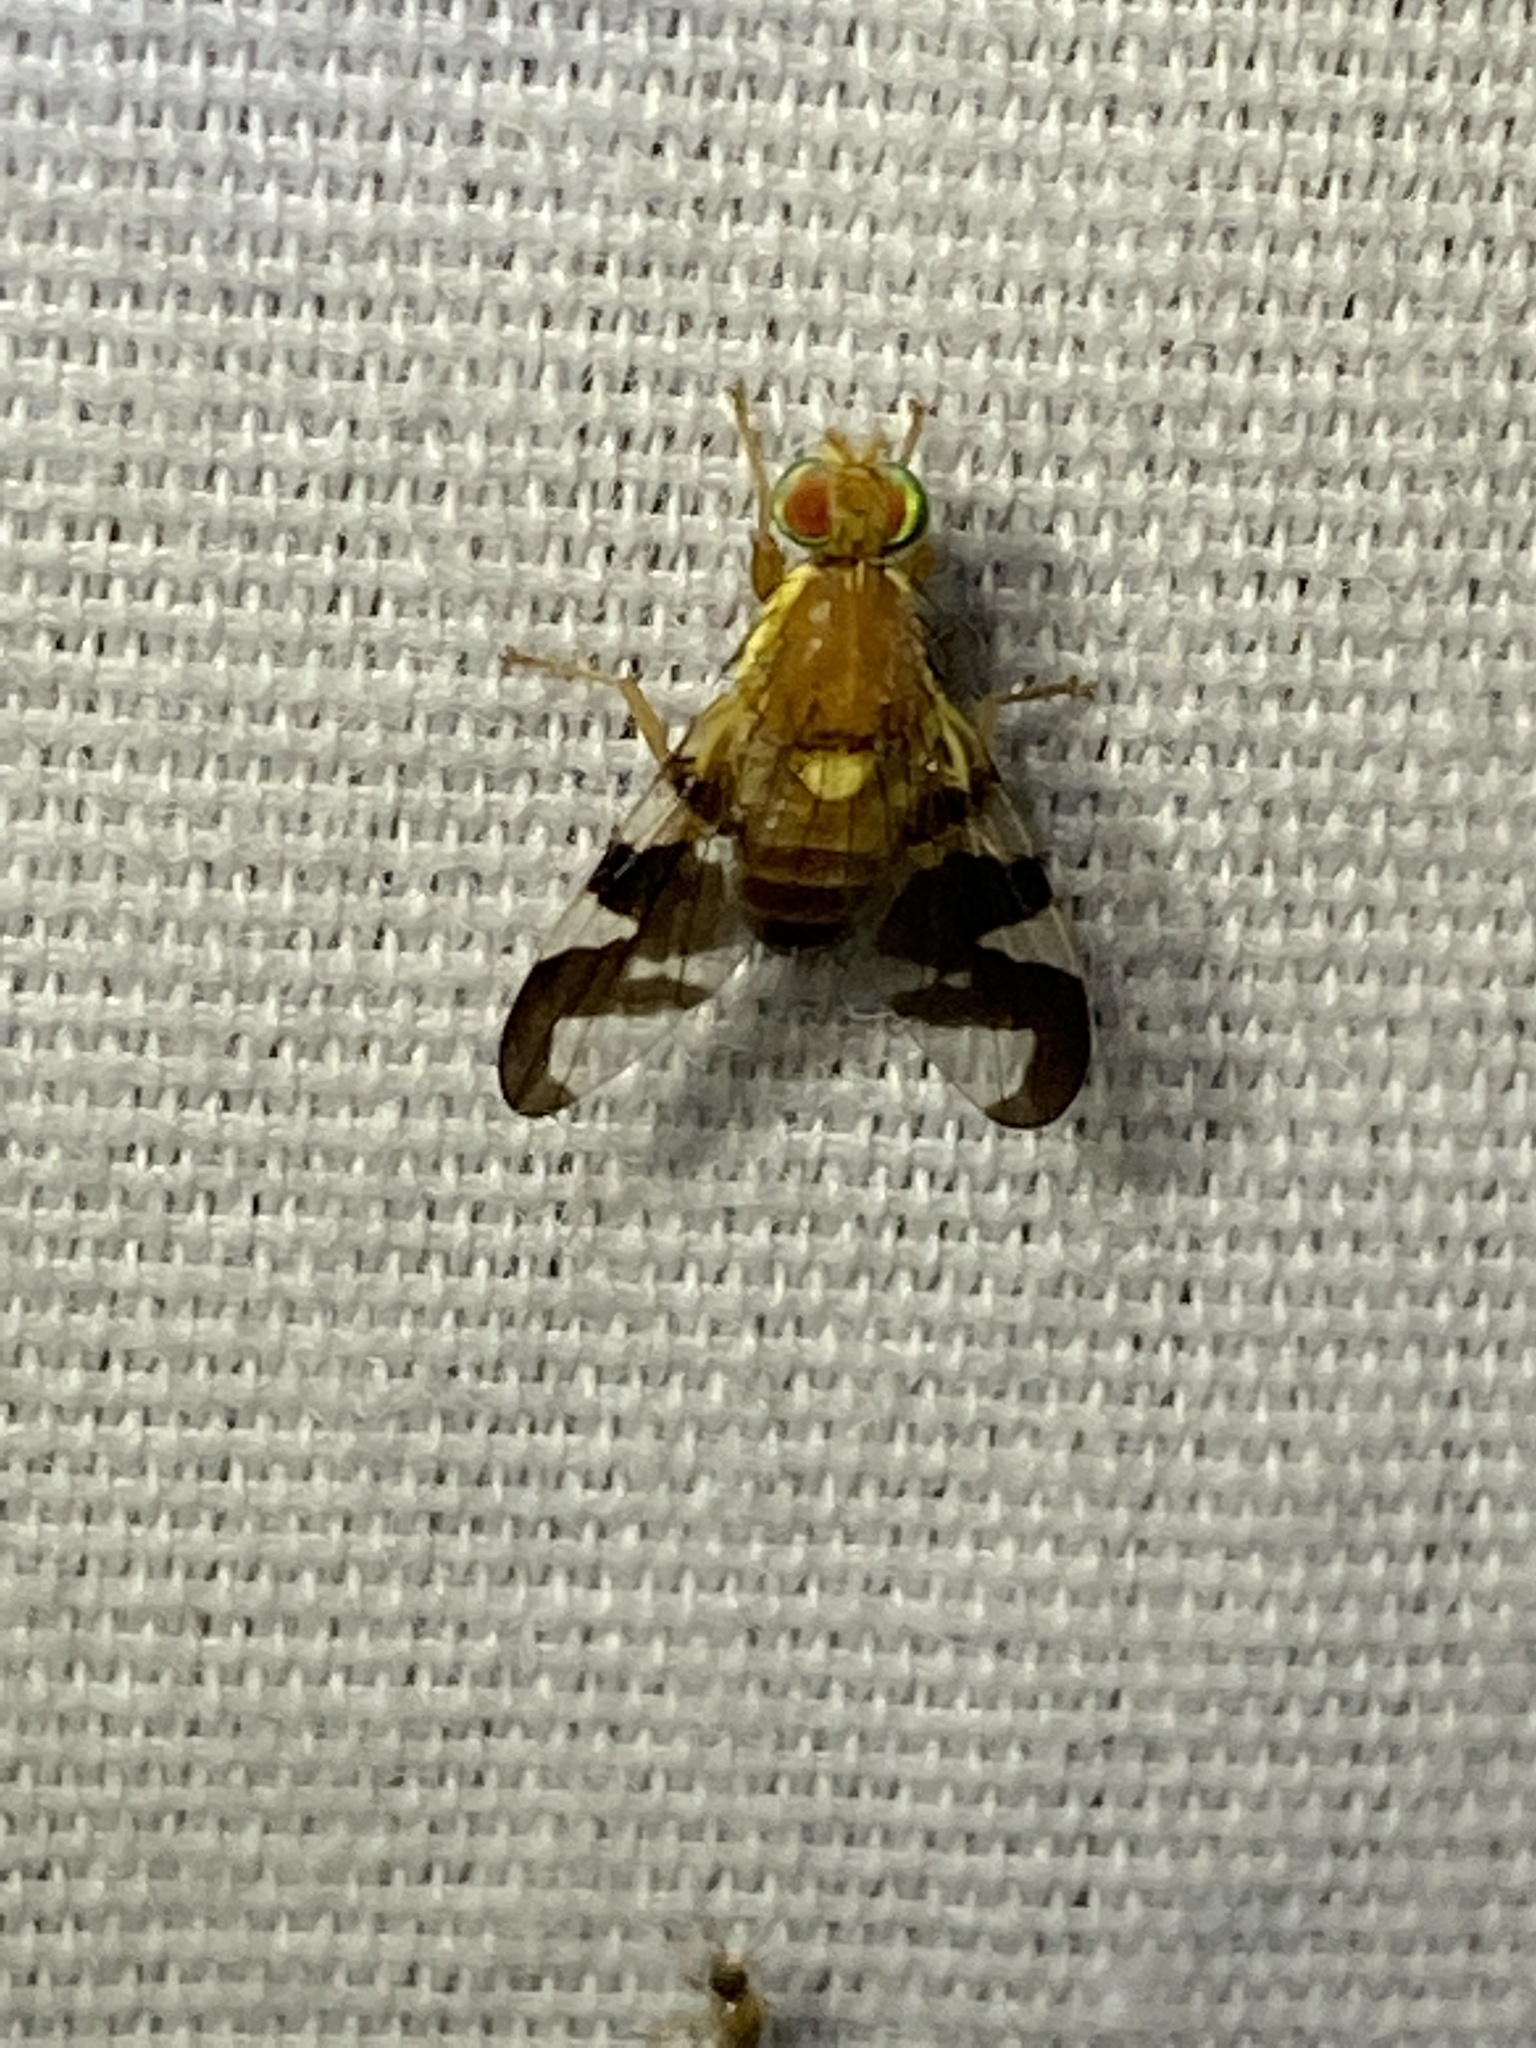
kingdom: Animalia
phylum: Arthropoda
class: Insecta
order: Diptera
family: Tephritidae
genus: Rhagoletis
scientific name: Rhagoletis suavis
